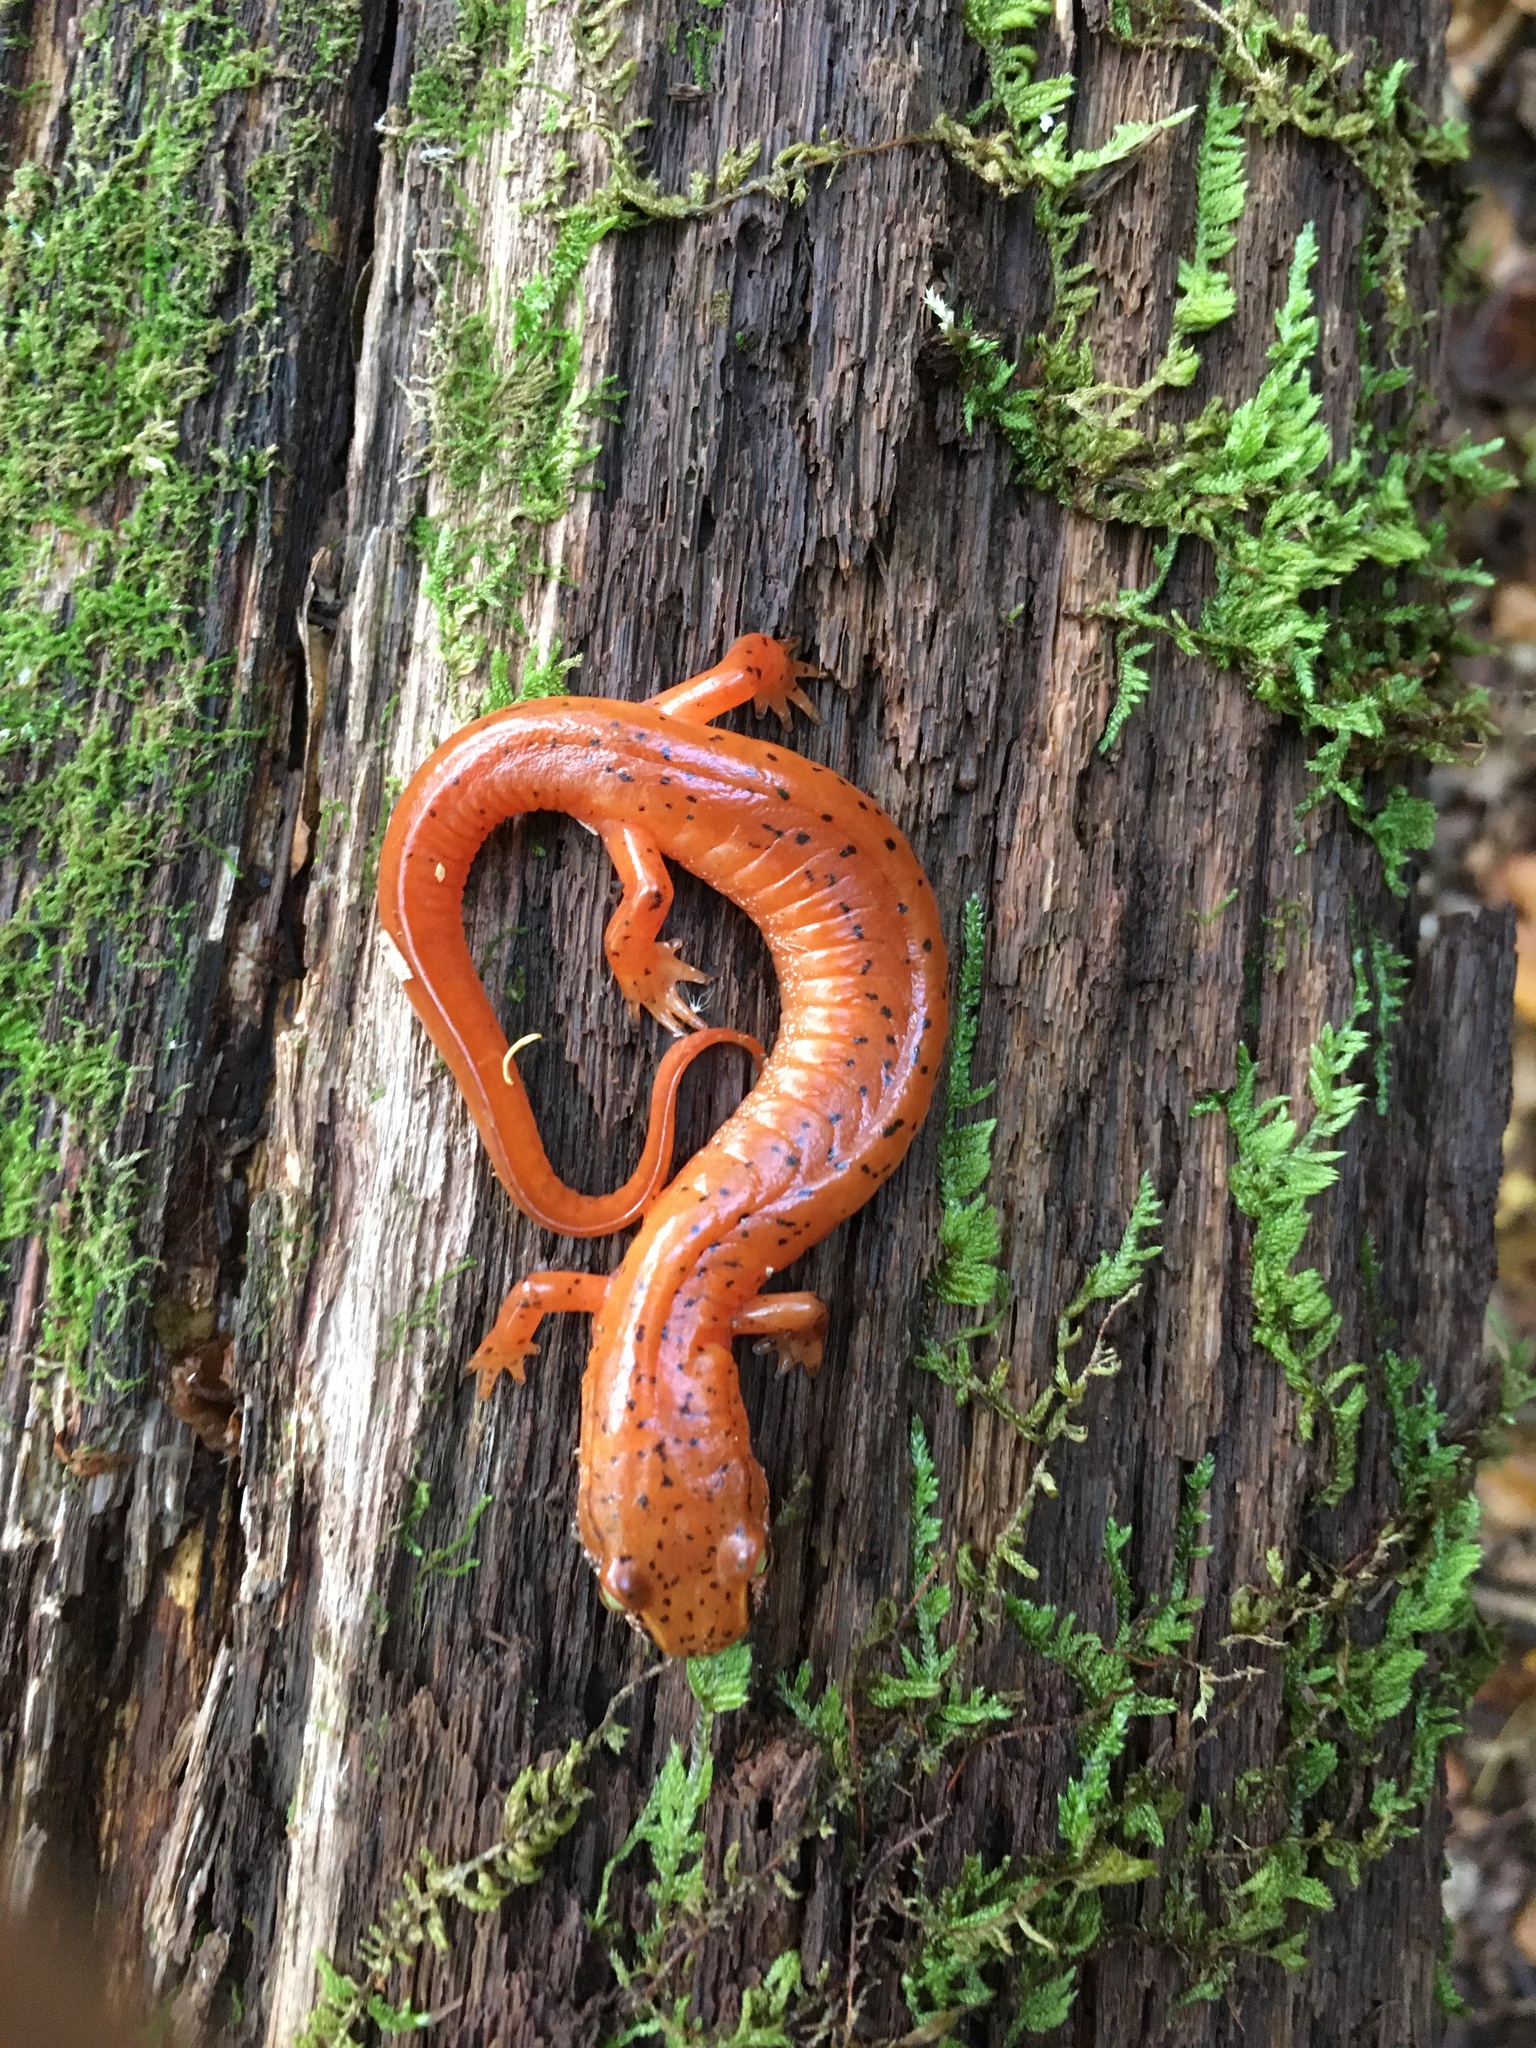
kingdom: Animalia
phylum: Chordata
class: Amphibia
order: Caudata
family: Plethodontidae
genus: Gyrinophilus
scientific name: Gyrinophilus porphyriticus
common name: Spring salamander
